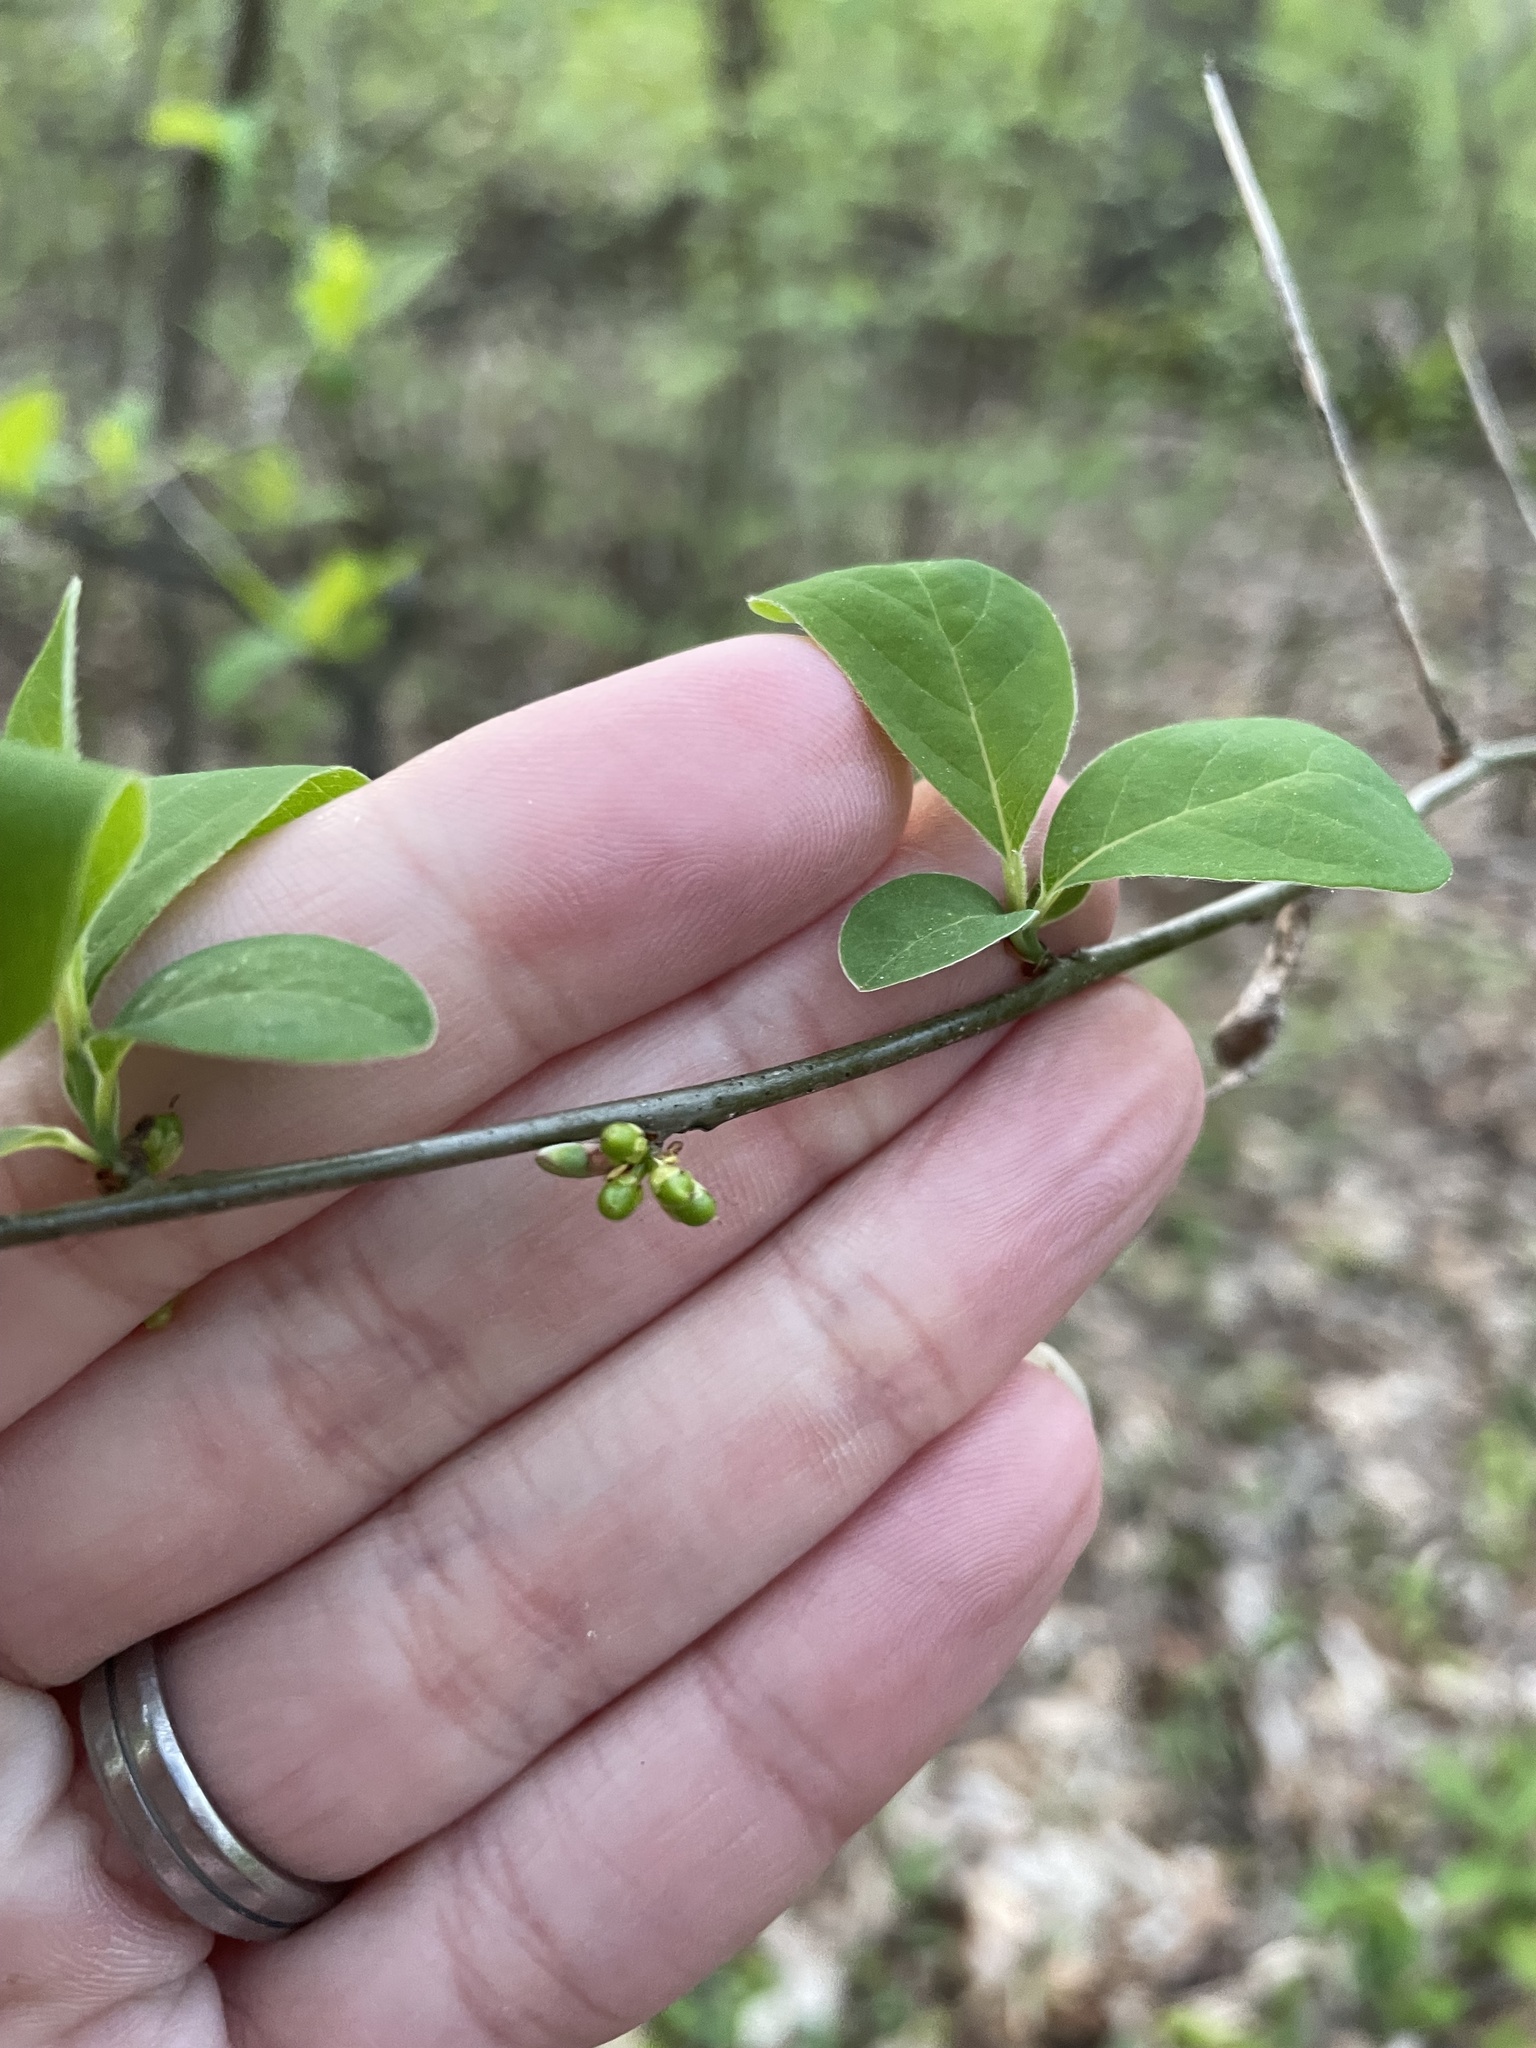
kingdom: Plantae
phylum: Tracheophyta
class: Magnoliopsida
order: Laurales
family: Lauraceae
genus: Lindera
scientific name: Lindera benzoin
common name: Spicebush
